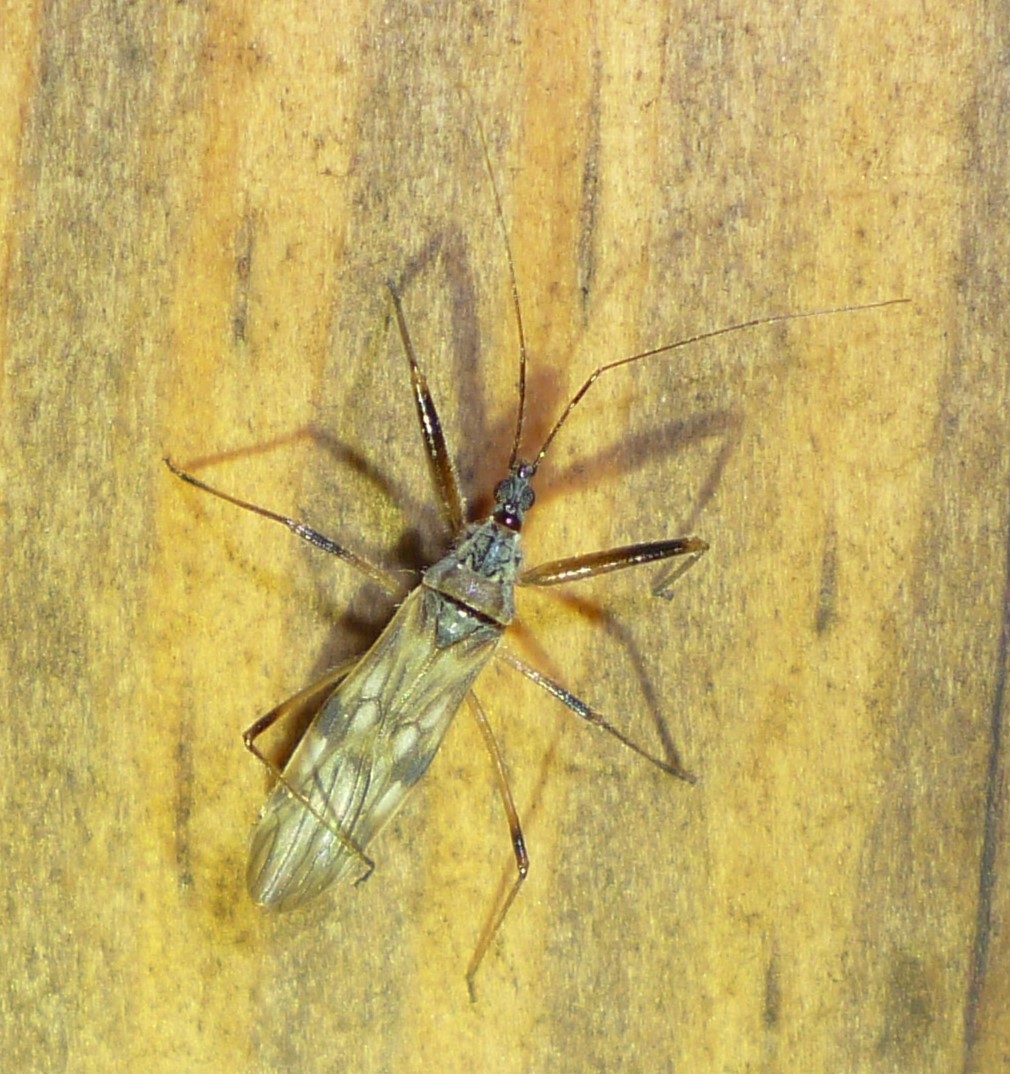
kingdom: Animalia
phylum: Arthropoda
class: Insecta
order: Hemiptera
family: Nabidae
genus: Metatropiphorus
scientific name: Metatropiphorus belfragii
